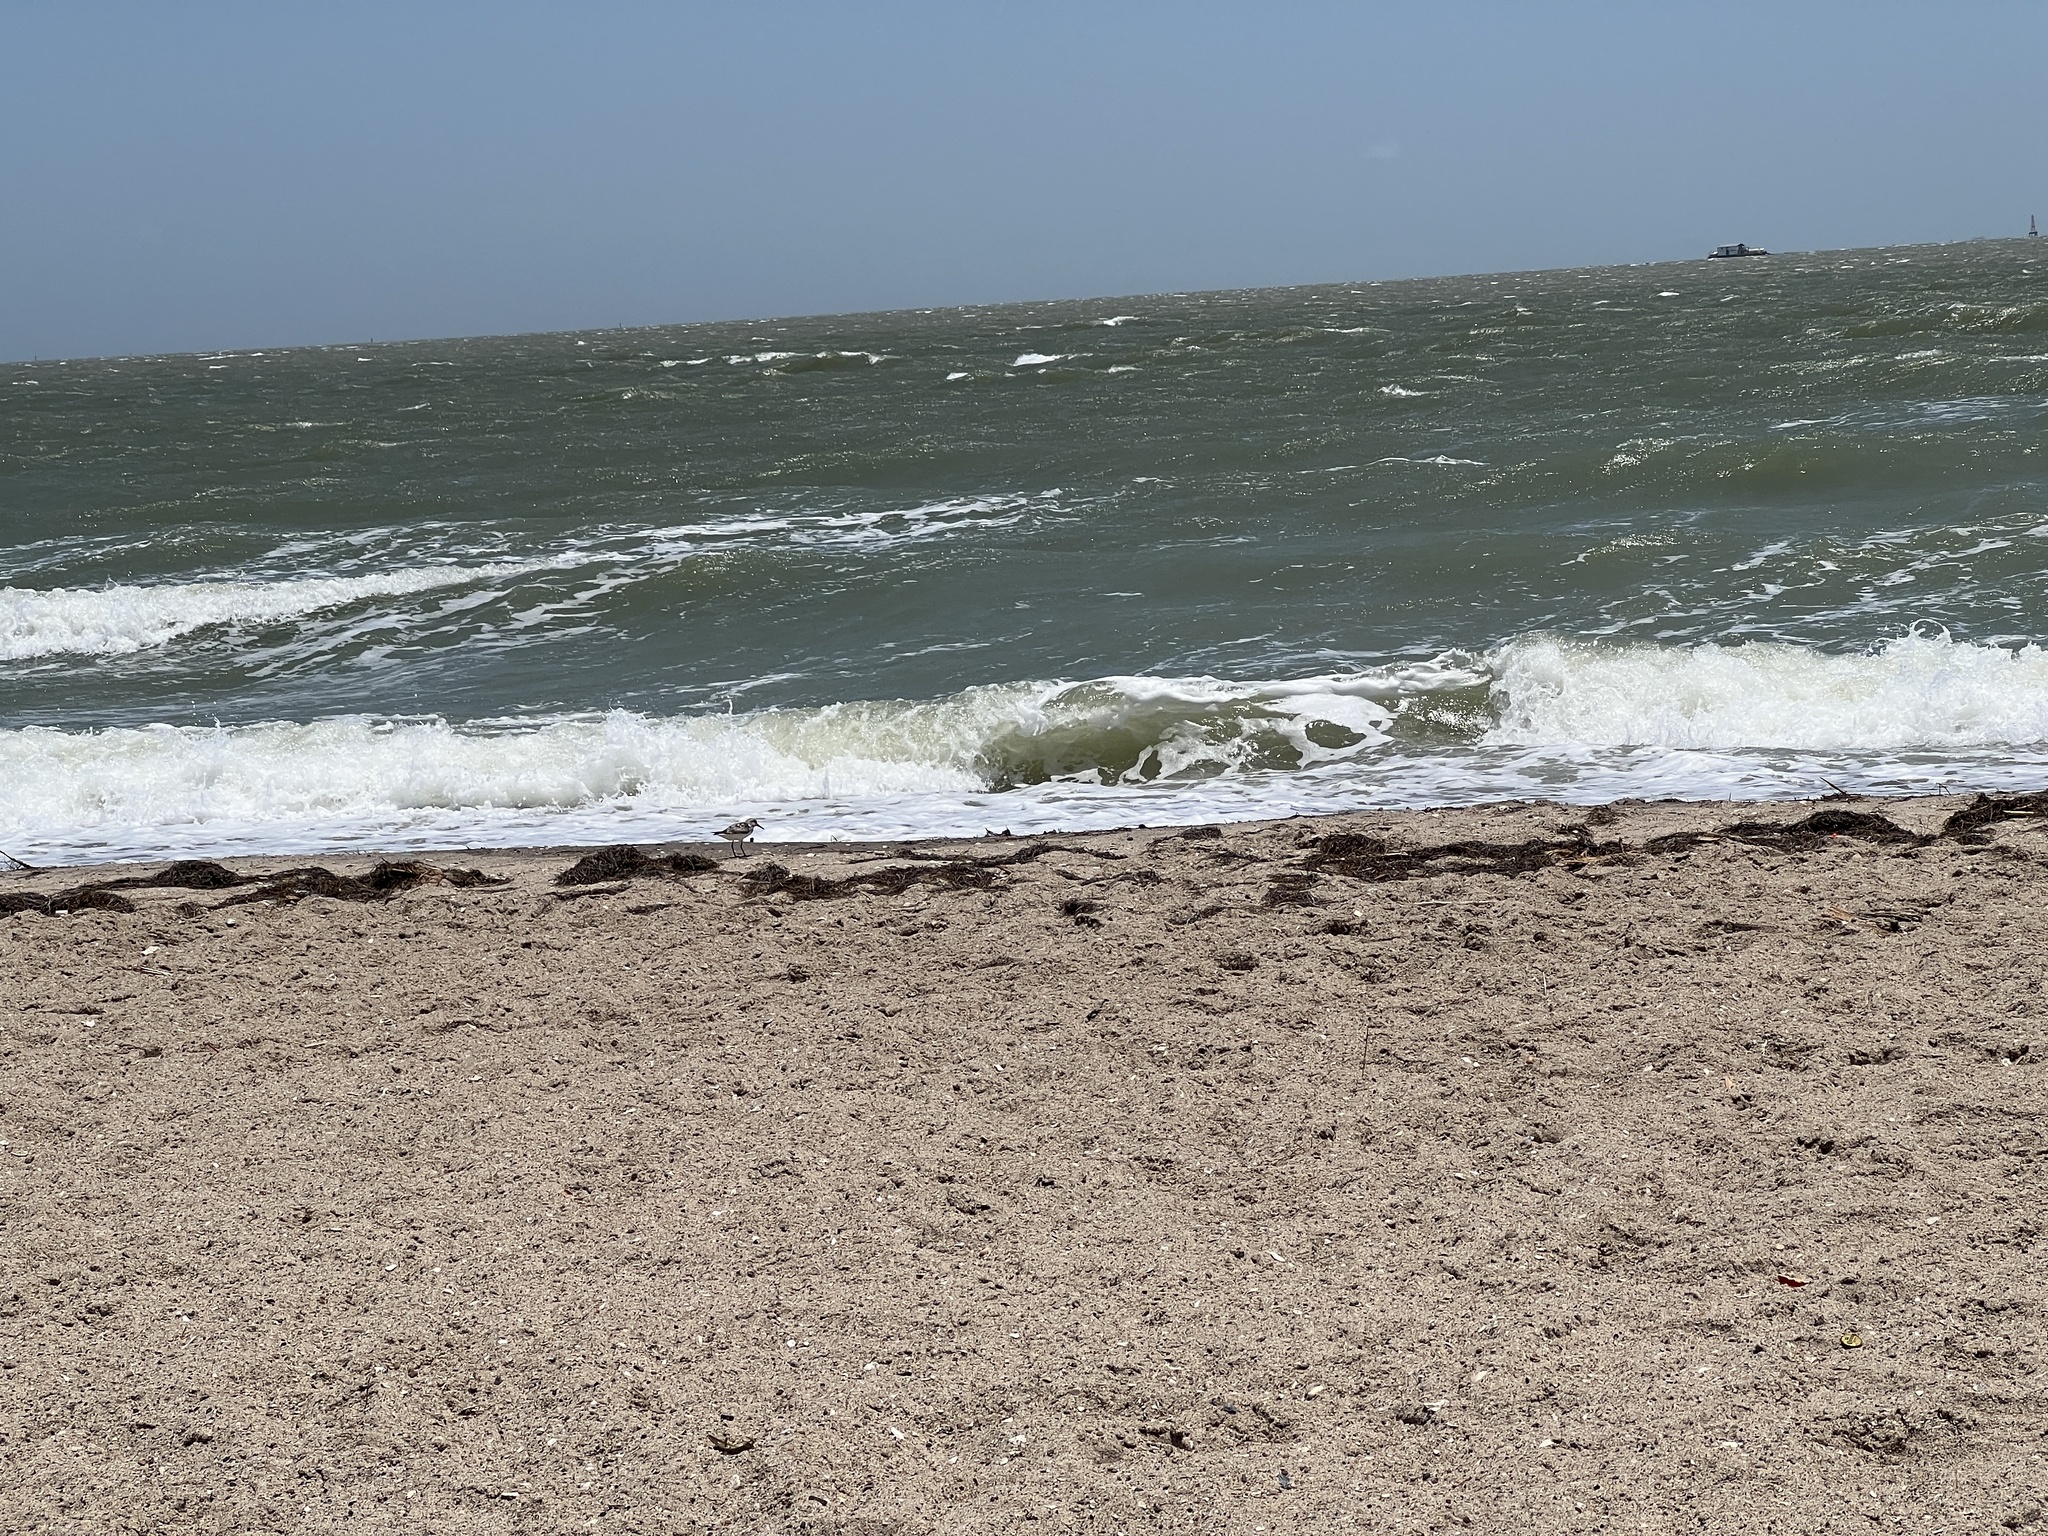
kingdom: Animalia
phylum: Chordata
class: Aves
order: Charadriiformes
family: Scolopacidae
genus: Calidris
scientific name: Calidris alba
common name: Sanderling
